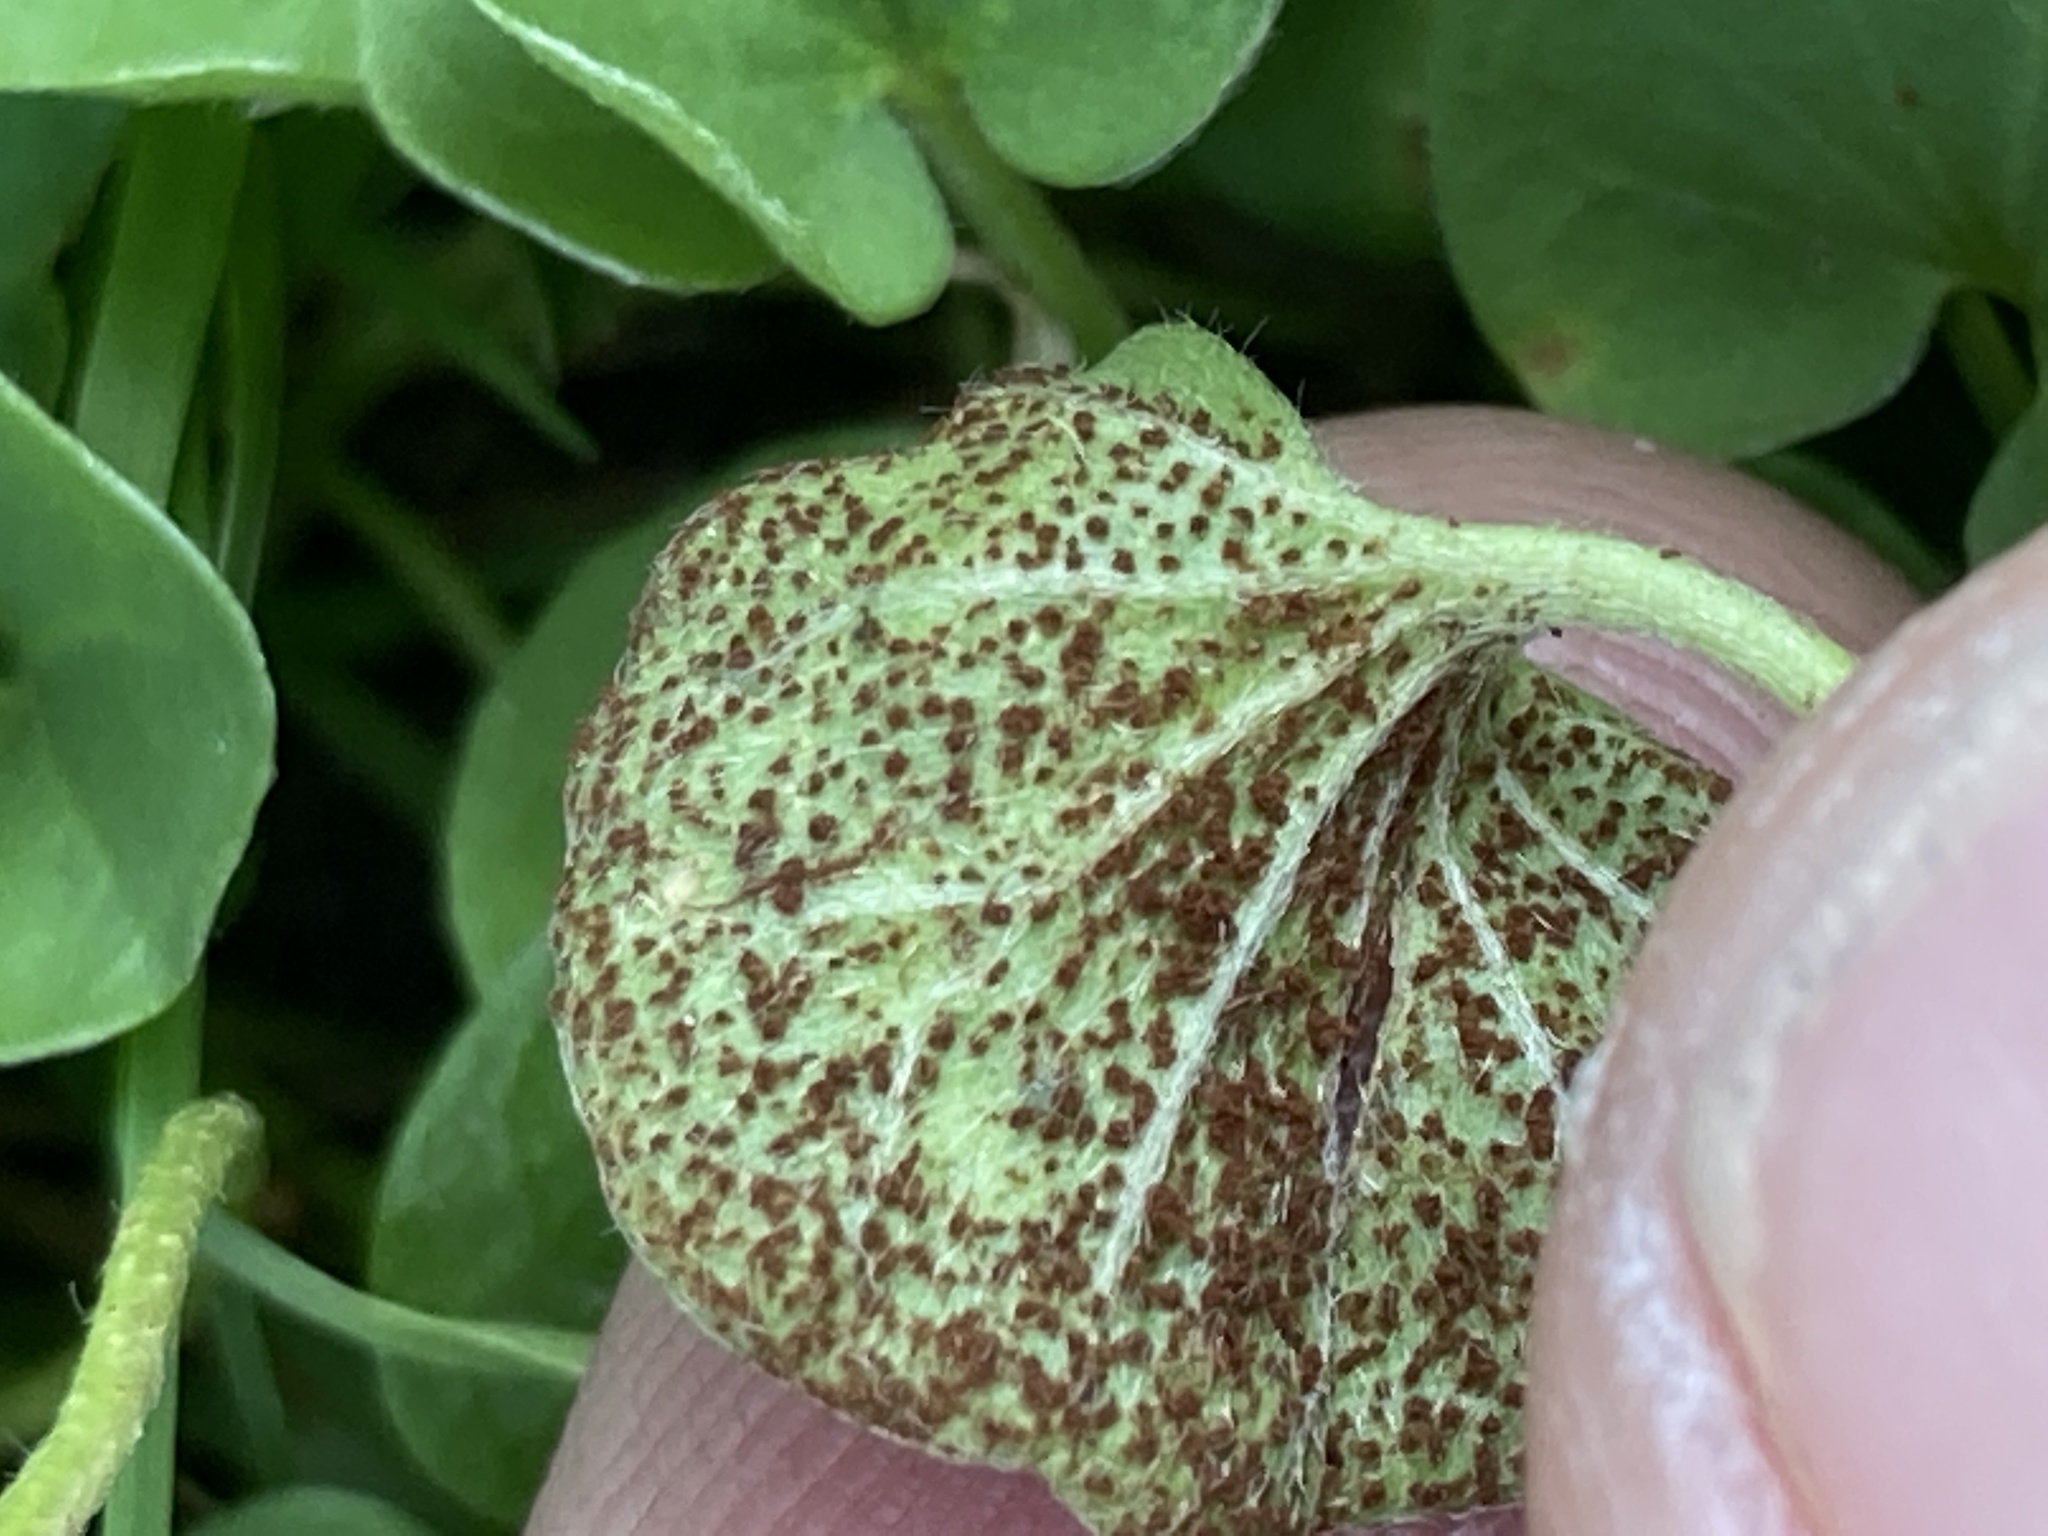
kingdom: Fungi
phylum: Basidiomycota
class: Pucciniomycetes
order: Pucciniales
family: Pucciniaceae
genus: Puccinia
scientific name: Puccinia dichondrae
